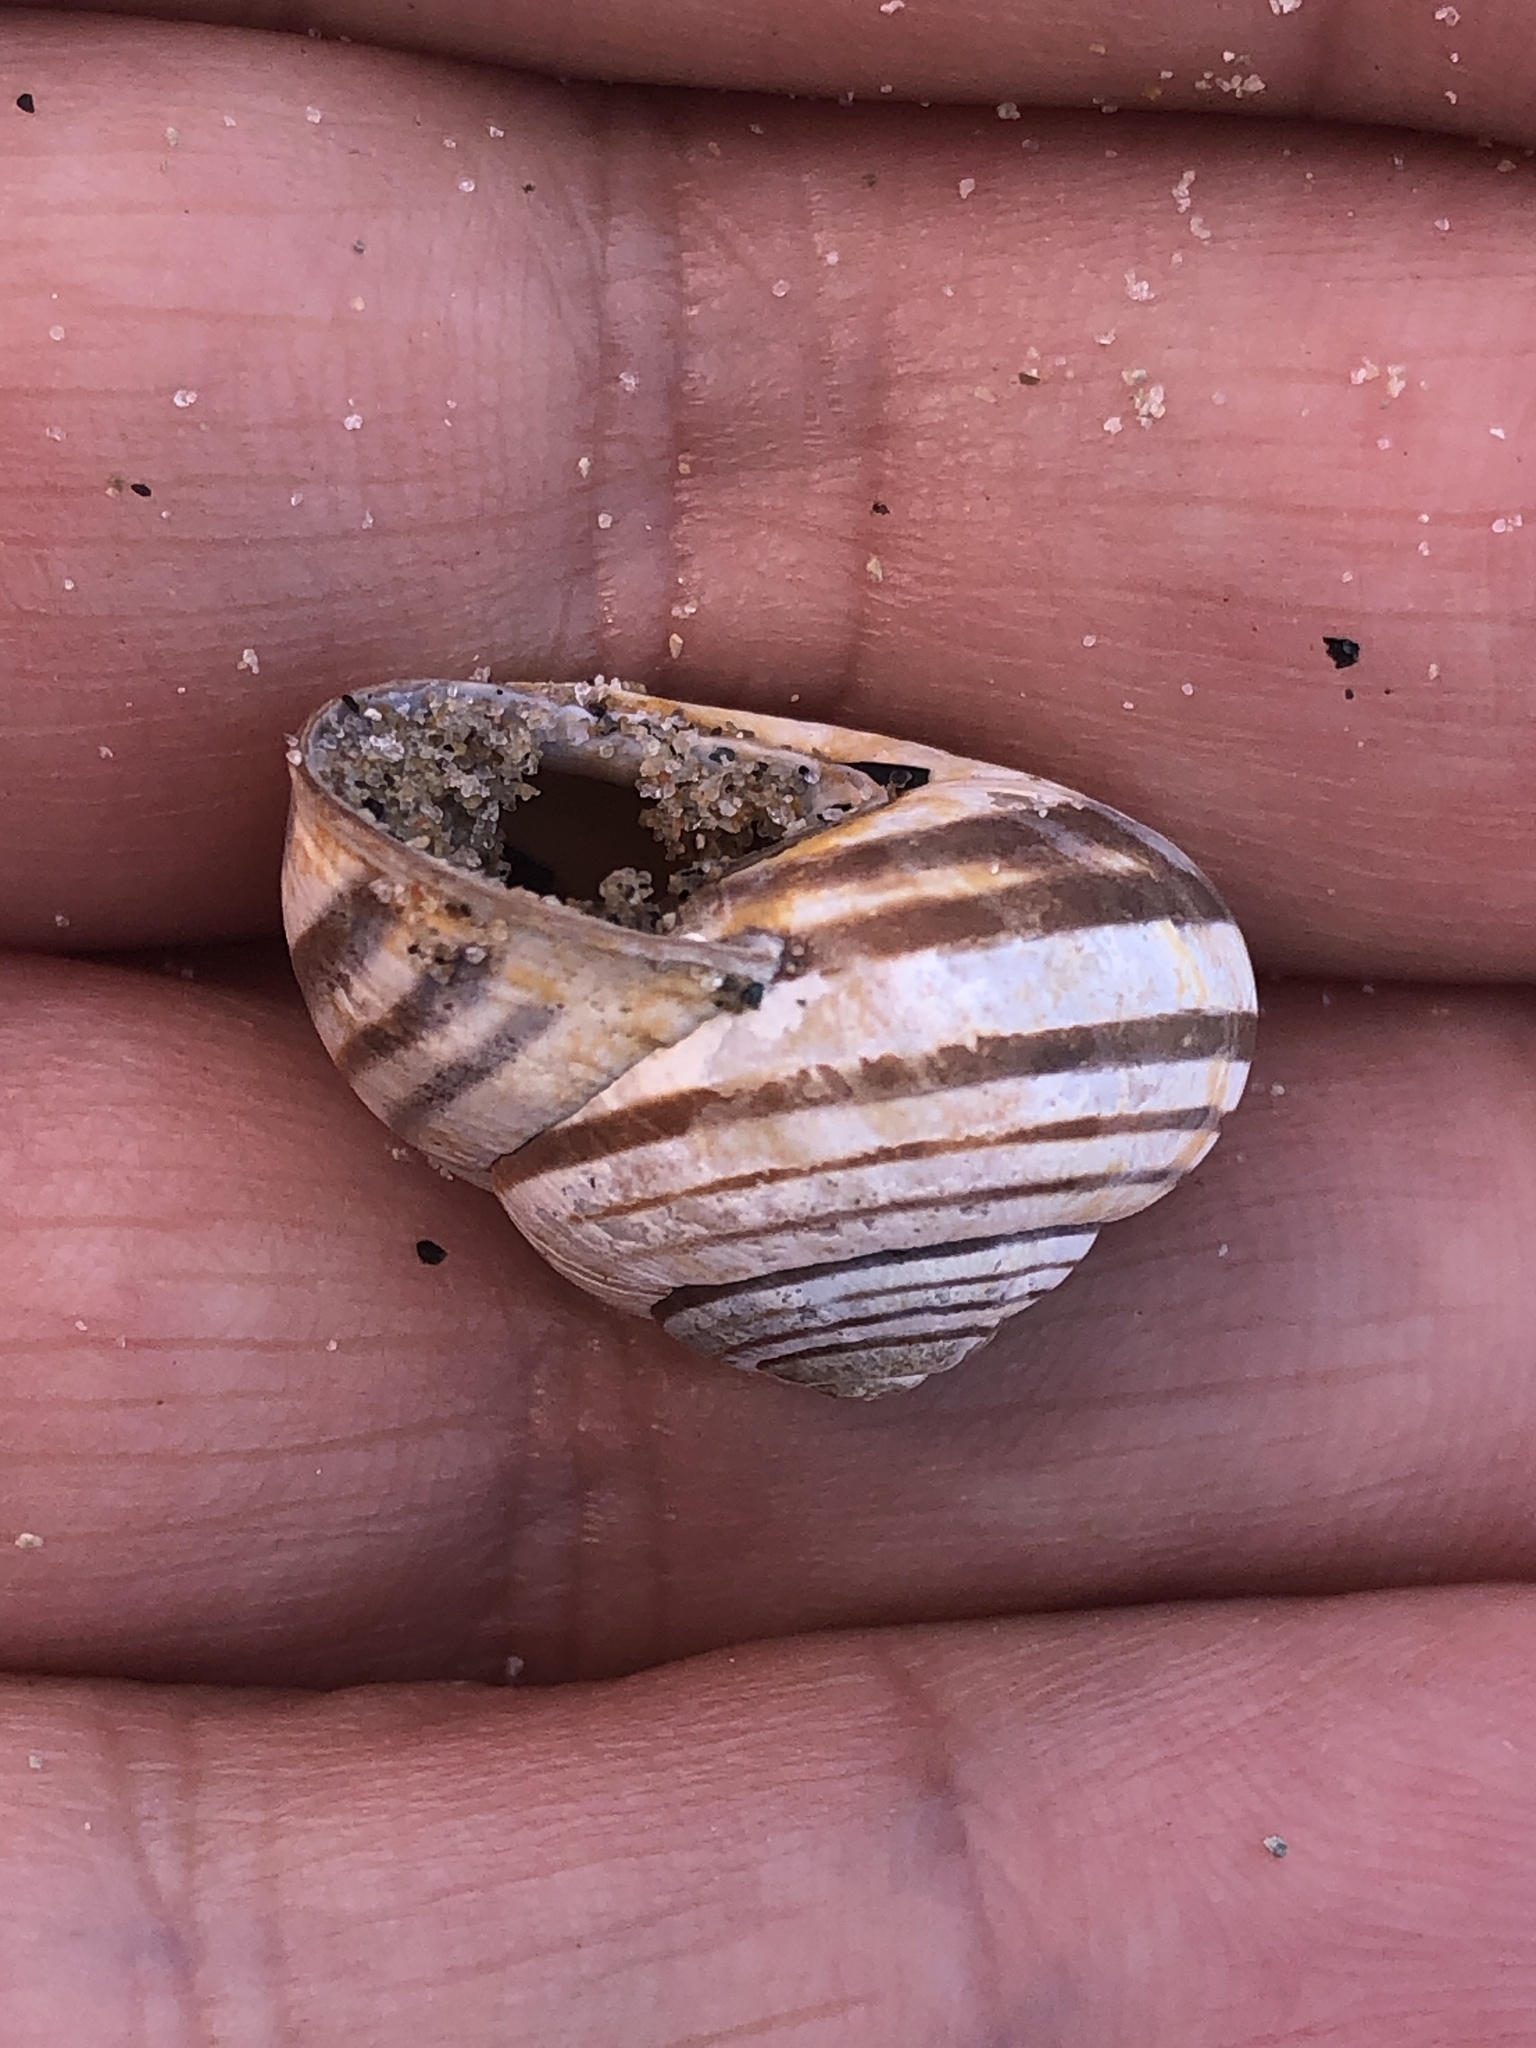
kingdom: Animalia
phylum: Mollusca
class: Gastropoda
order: Stylommatophora
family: Helicidae
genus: Cepaea
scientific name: Cepaea nemoralis
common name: Grovesnail
